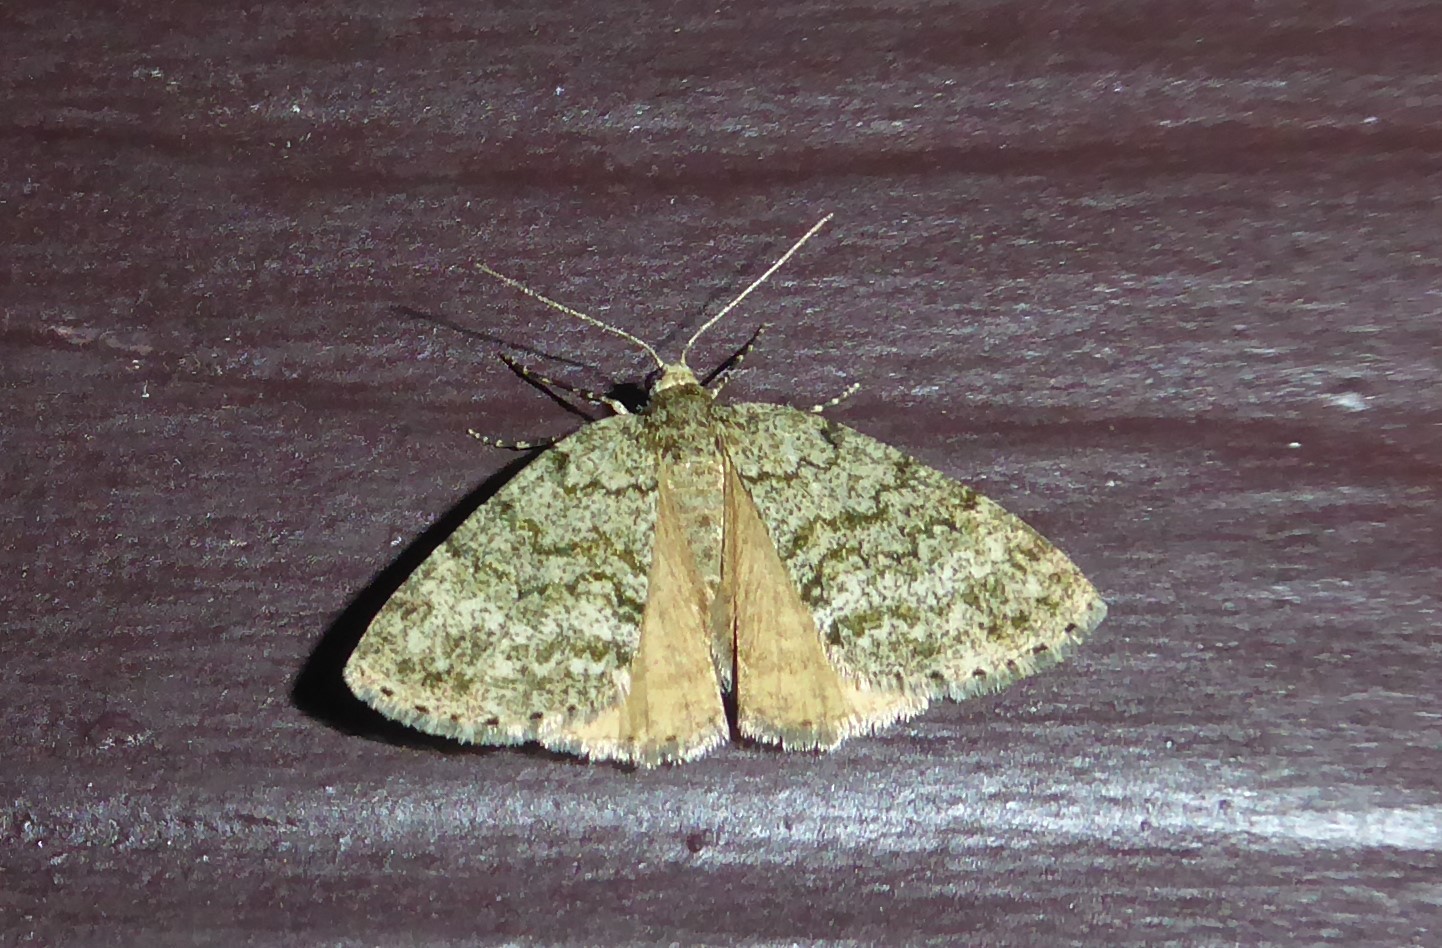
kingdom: Animalia
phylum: Arthropoda
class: Insecta
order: Lepidoptera
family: Geometridae
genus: Pseudocoremia
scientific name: Pseudocoremia indistincta
